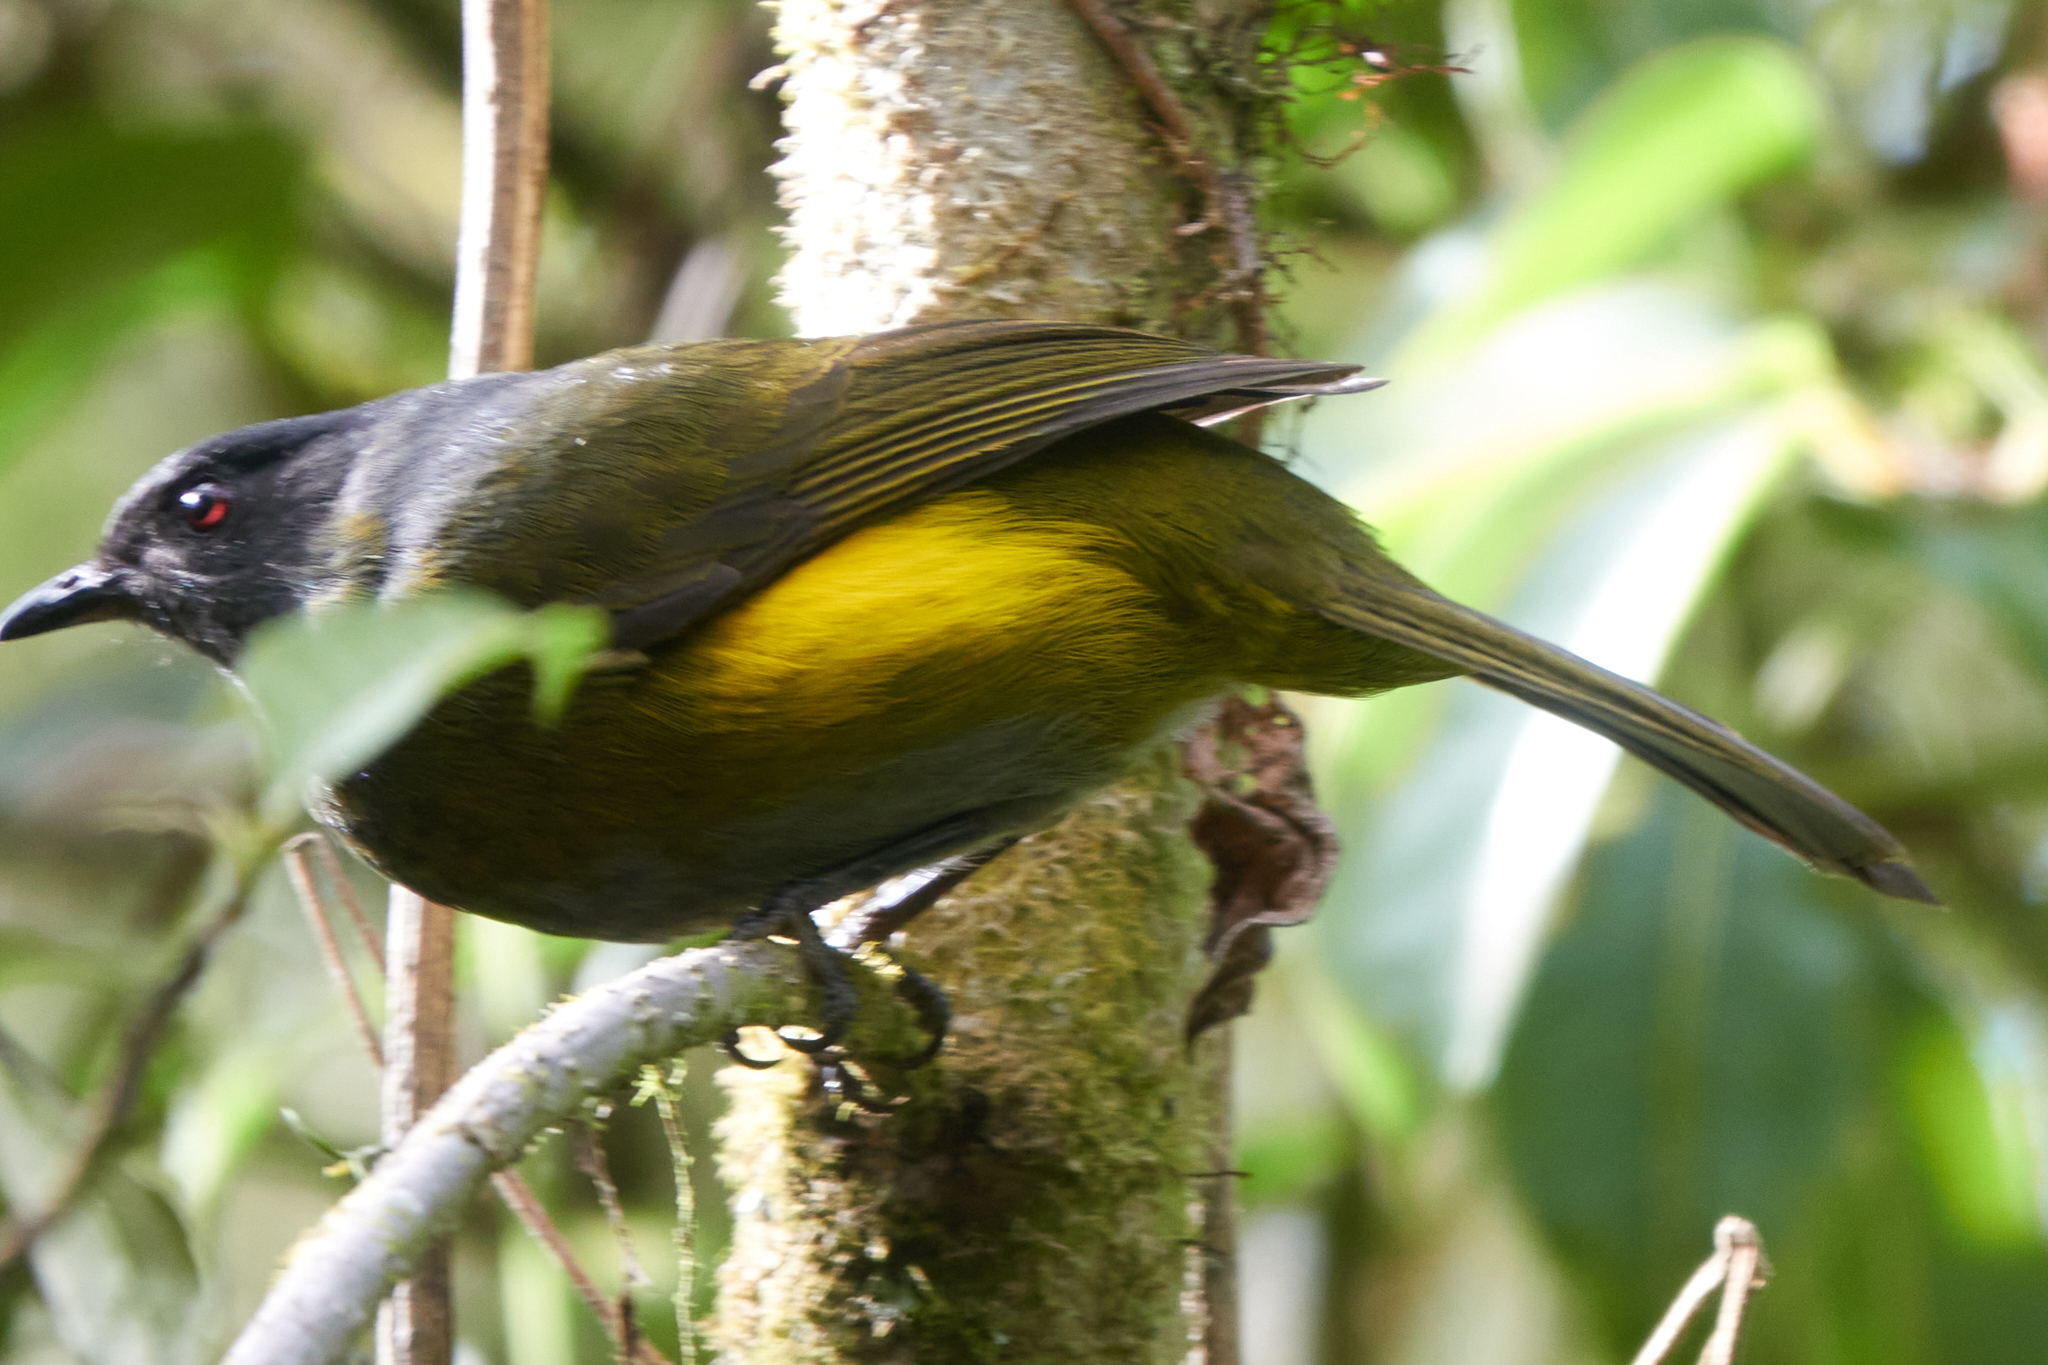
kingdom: Animalia
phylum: Chordata
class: Aves
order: Passeriformes
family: Ptilogonatidae
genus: Phainoptila
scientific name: Phainoptila melanoxantha
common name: Black-and-yellow phainoptila
